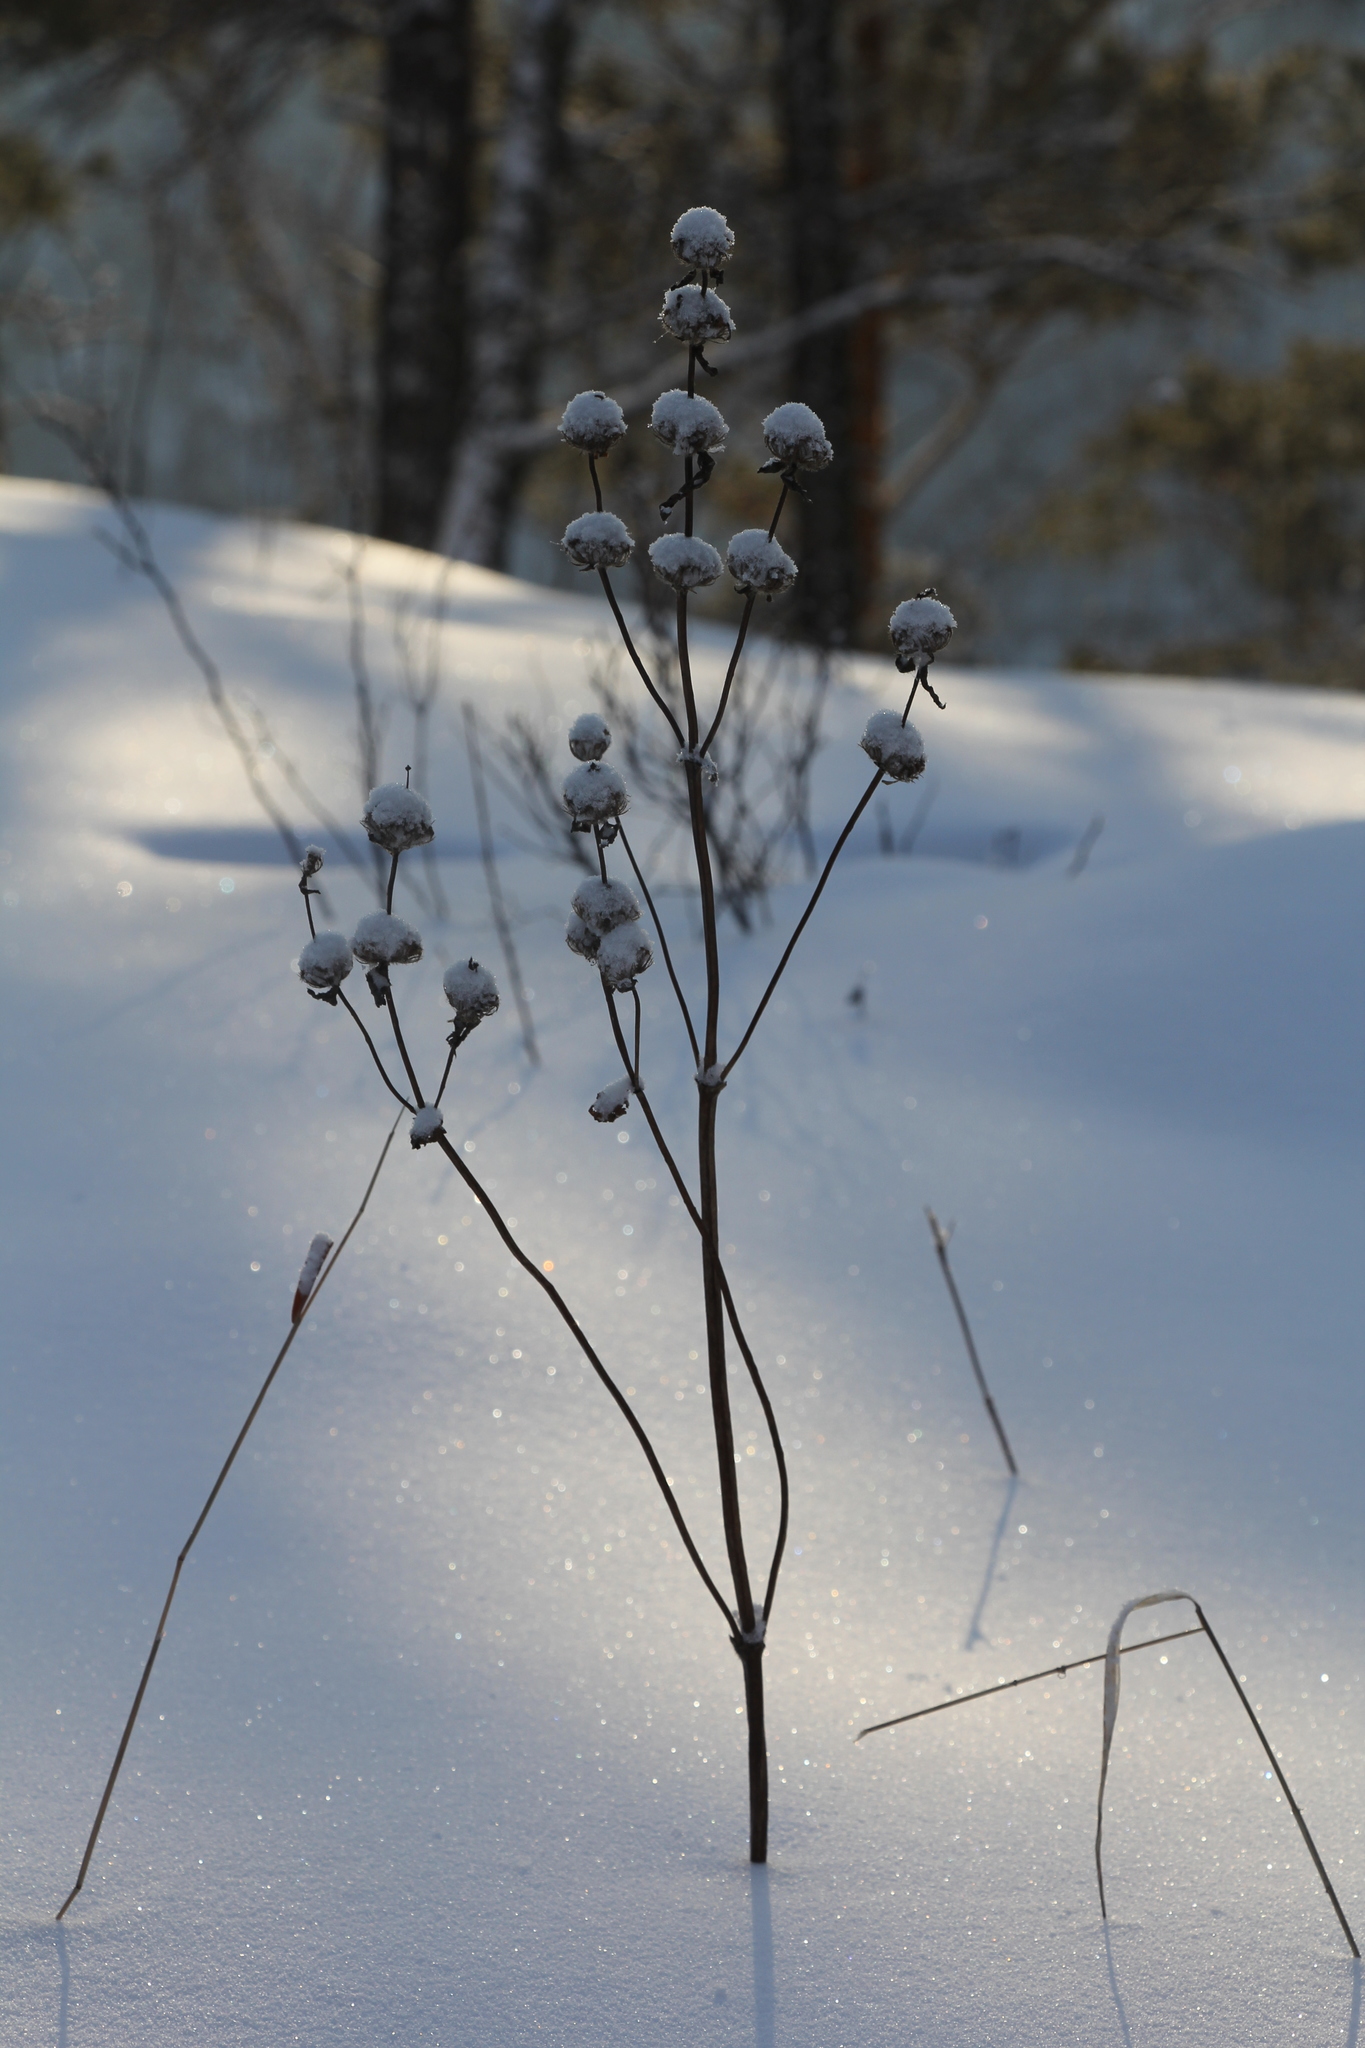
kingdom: Plantae
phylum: Tracheophyta
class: Magnoliopsida
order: Lamiales
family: Lamiaceae
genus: Phlomoides
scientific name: Phlomoides tuberosa
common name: Tuberous jerusalem sage
